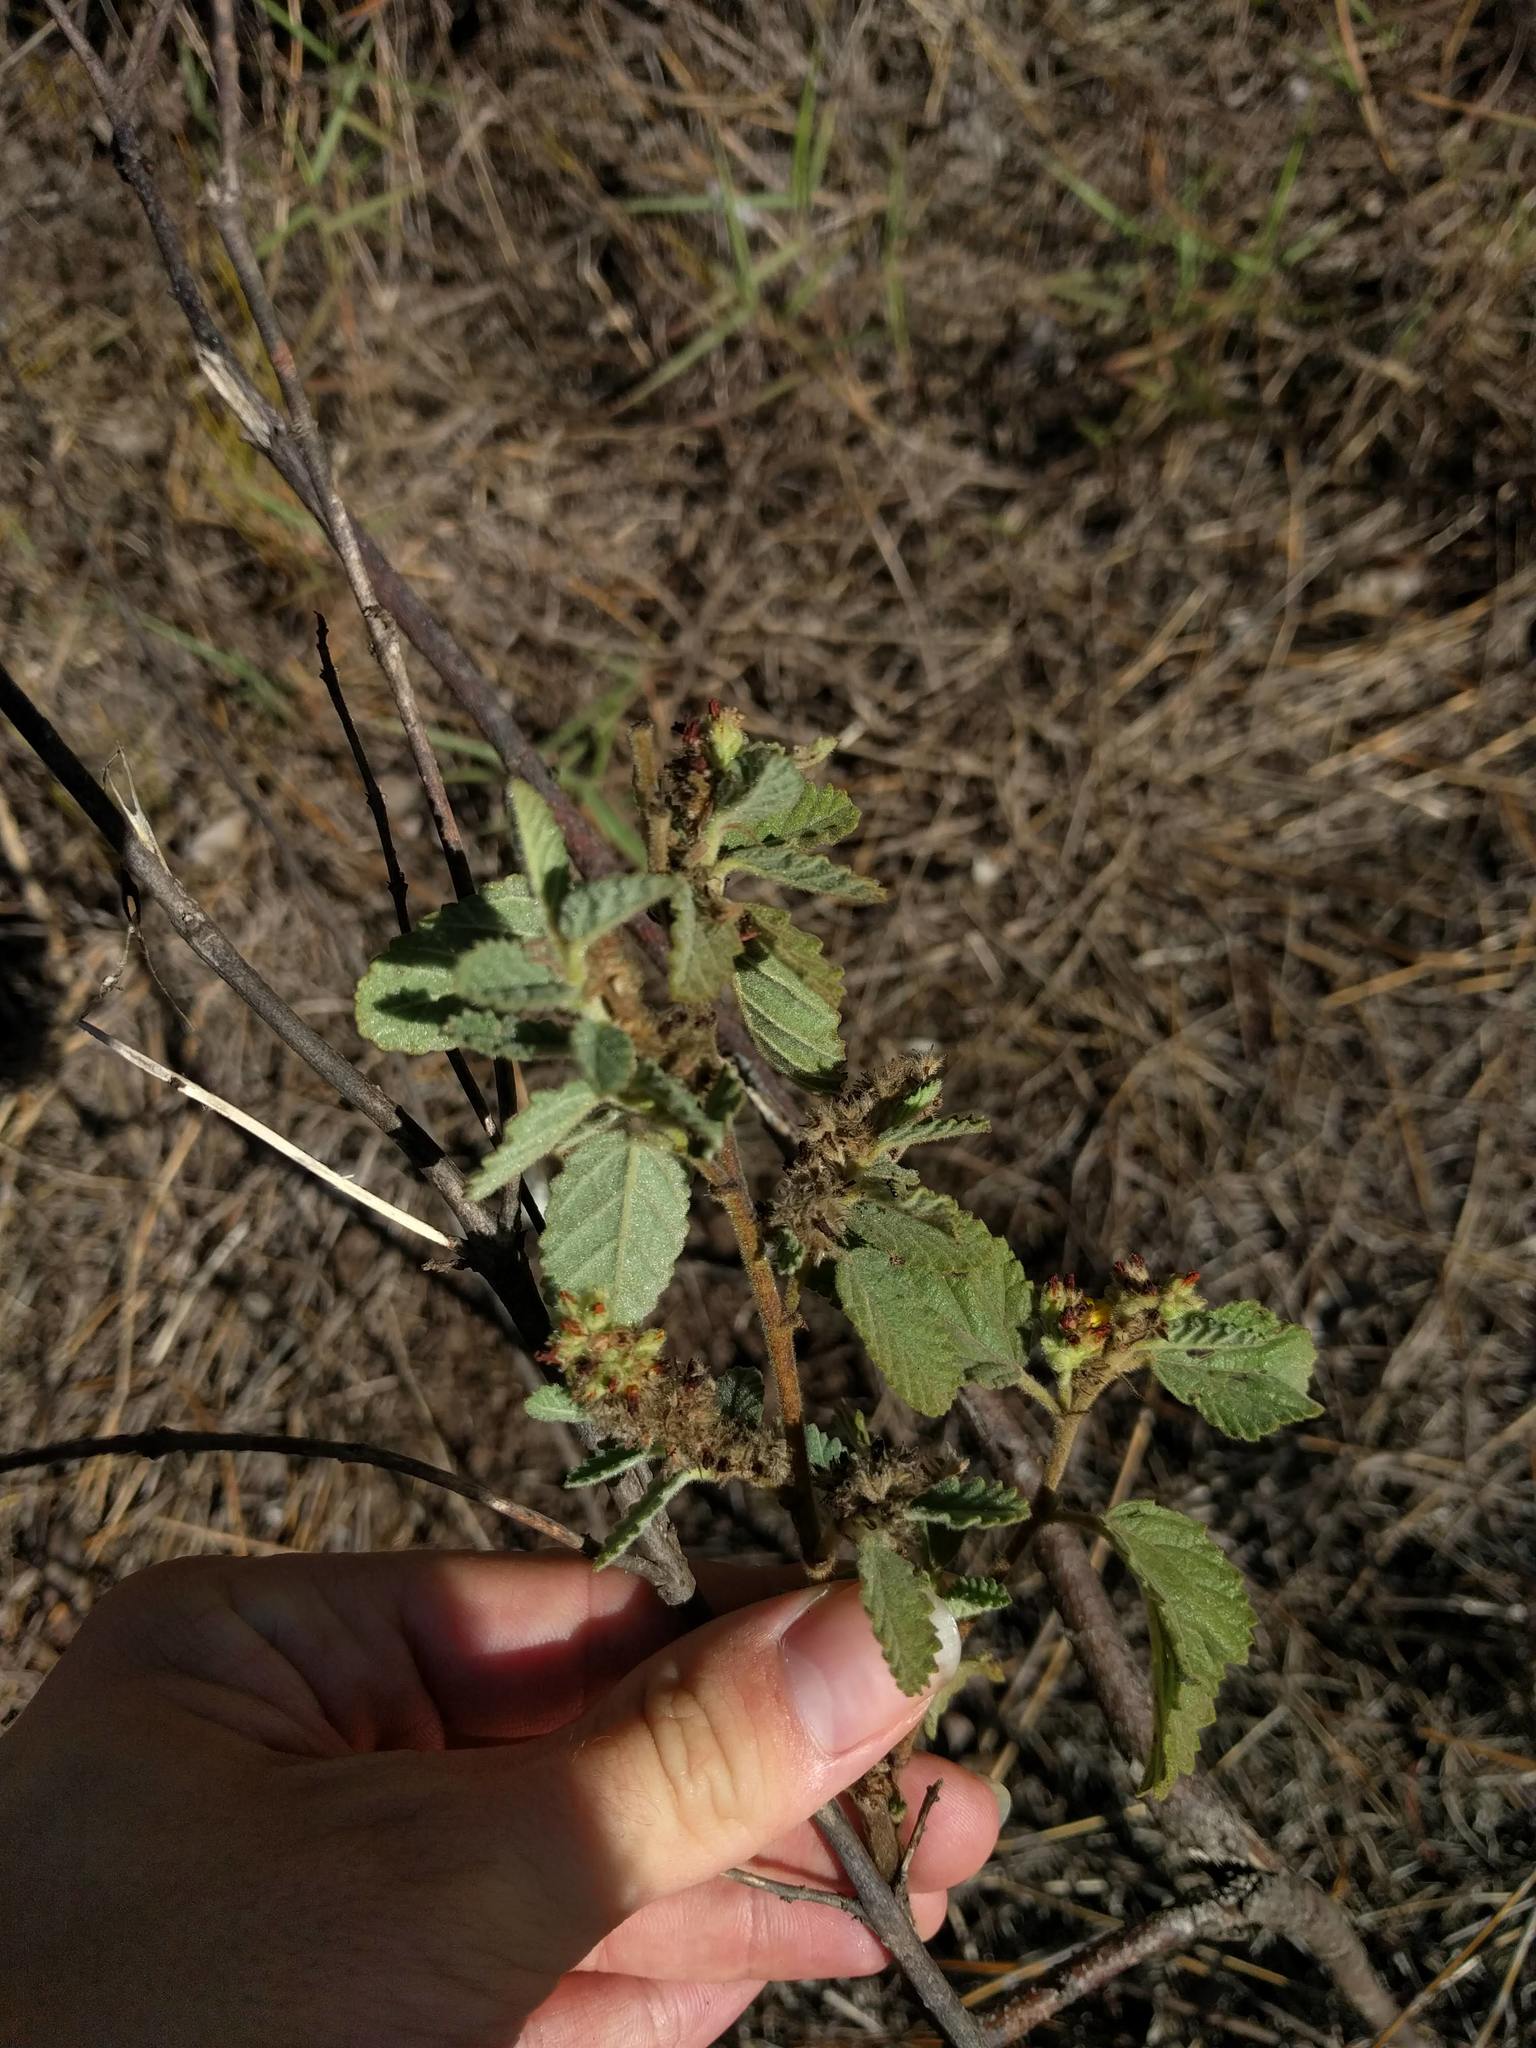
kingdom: Plantae
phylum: Tracheophyta
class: Magnoliopsida
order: Malvales
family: Malvaceae
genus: Waltheria
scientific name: Waltheria indica
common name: Leather-coat
